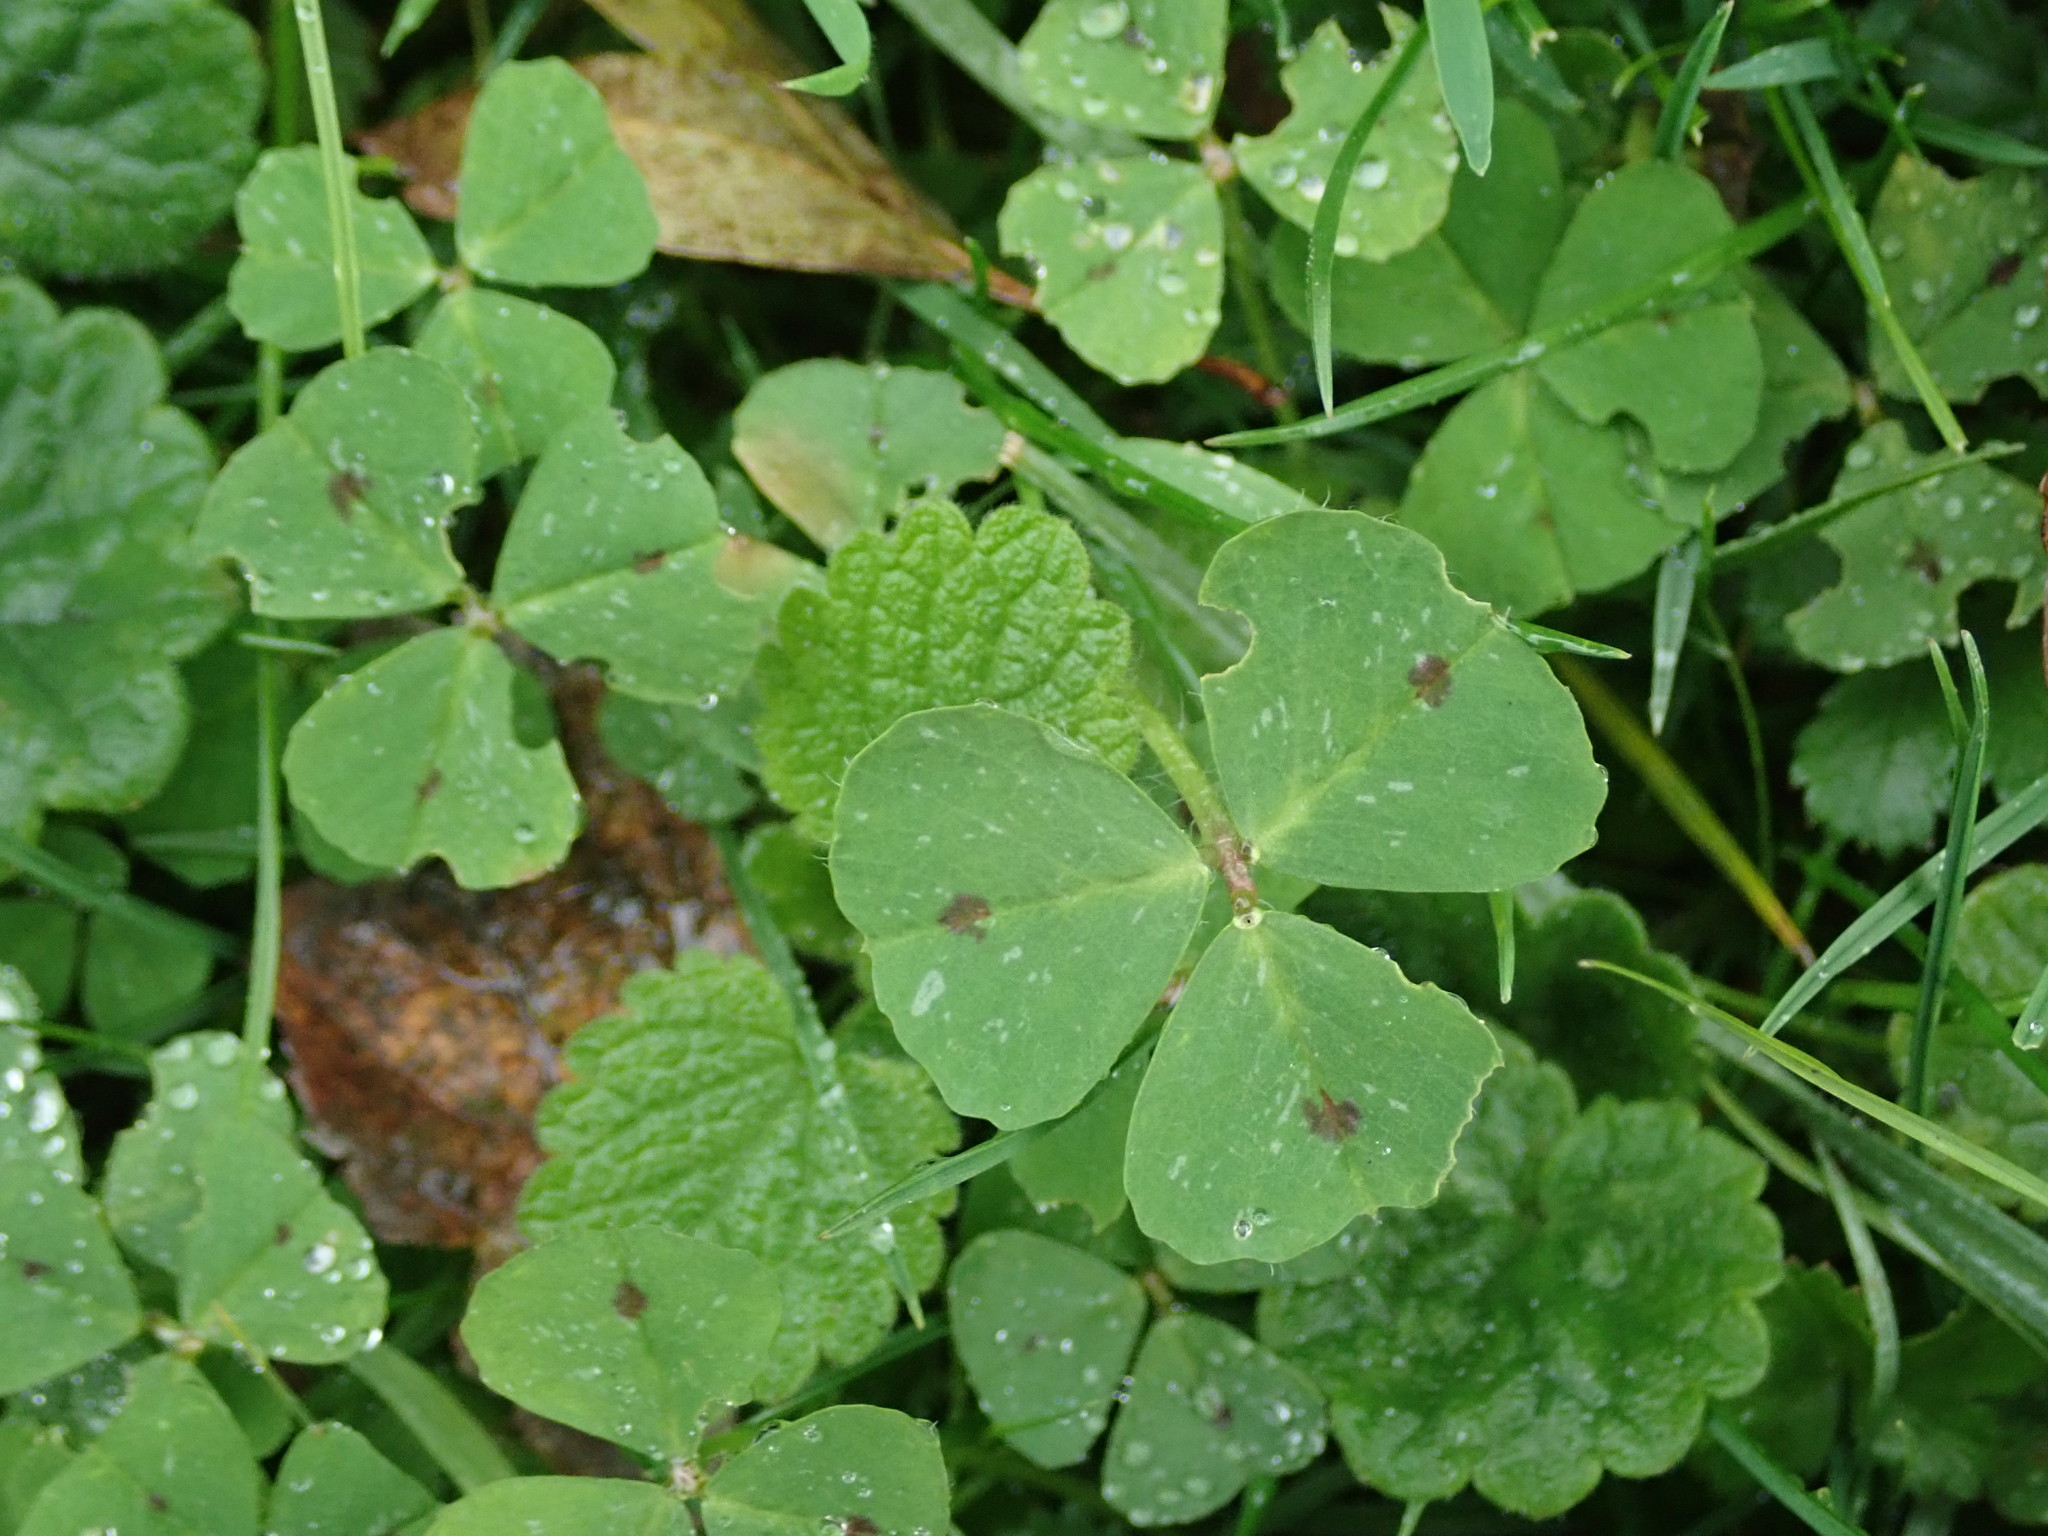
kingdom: Plantae
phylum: Tracheophyta
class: Magnoliopsida
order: Fabales
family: Fabaceae
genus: Medicago
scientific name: Medicago arabica
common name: Spotted medick
